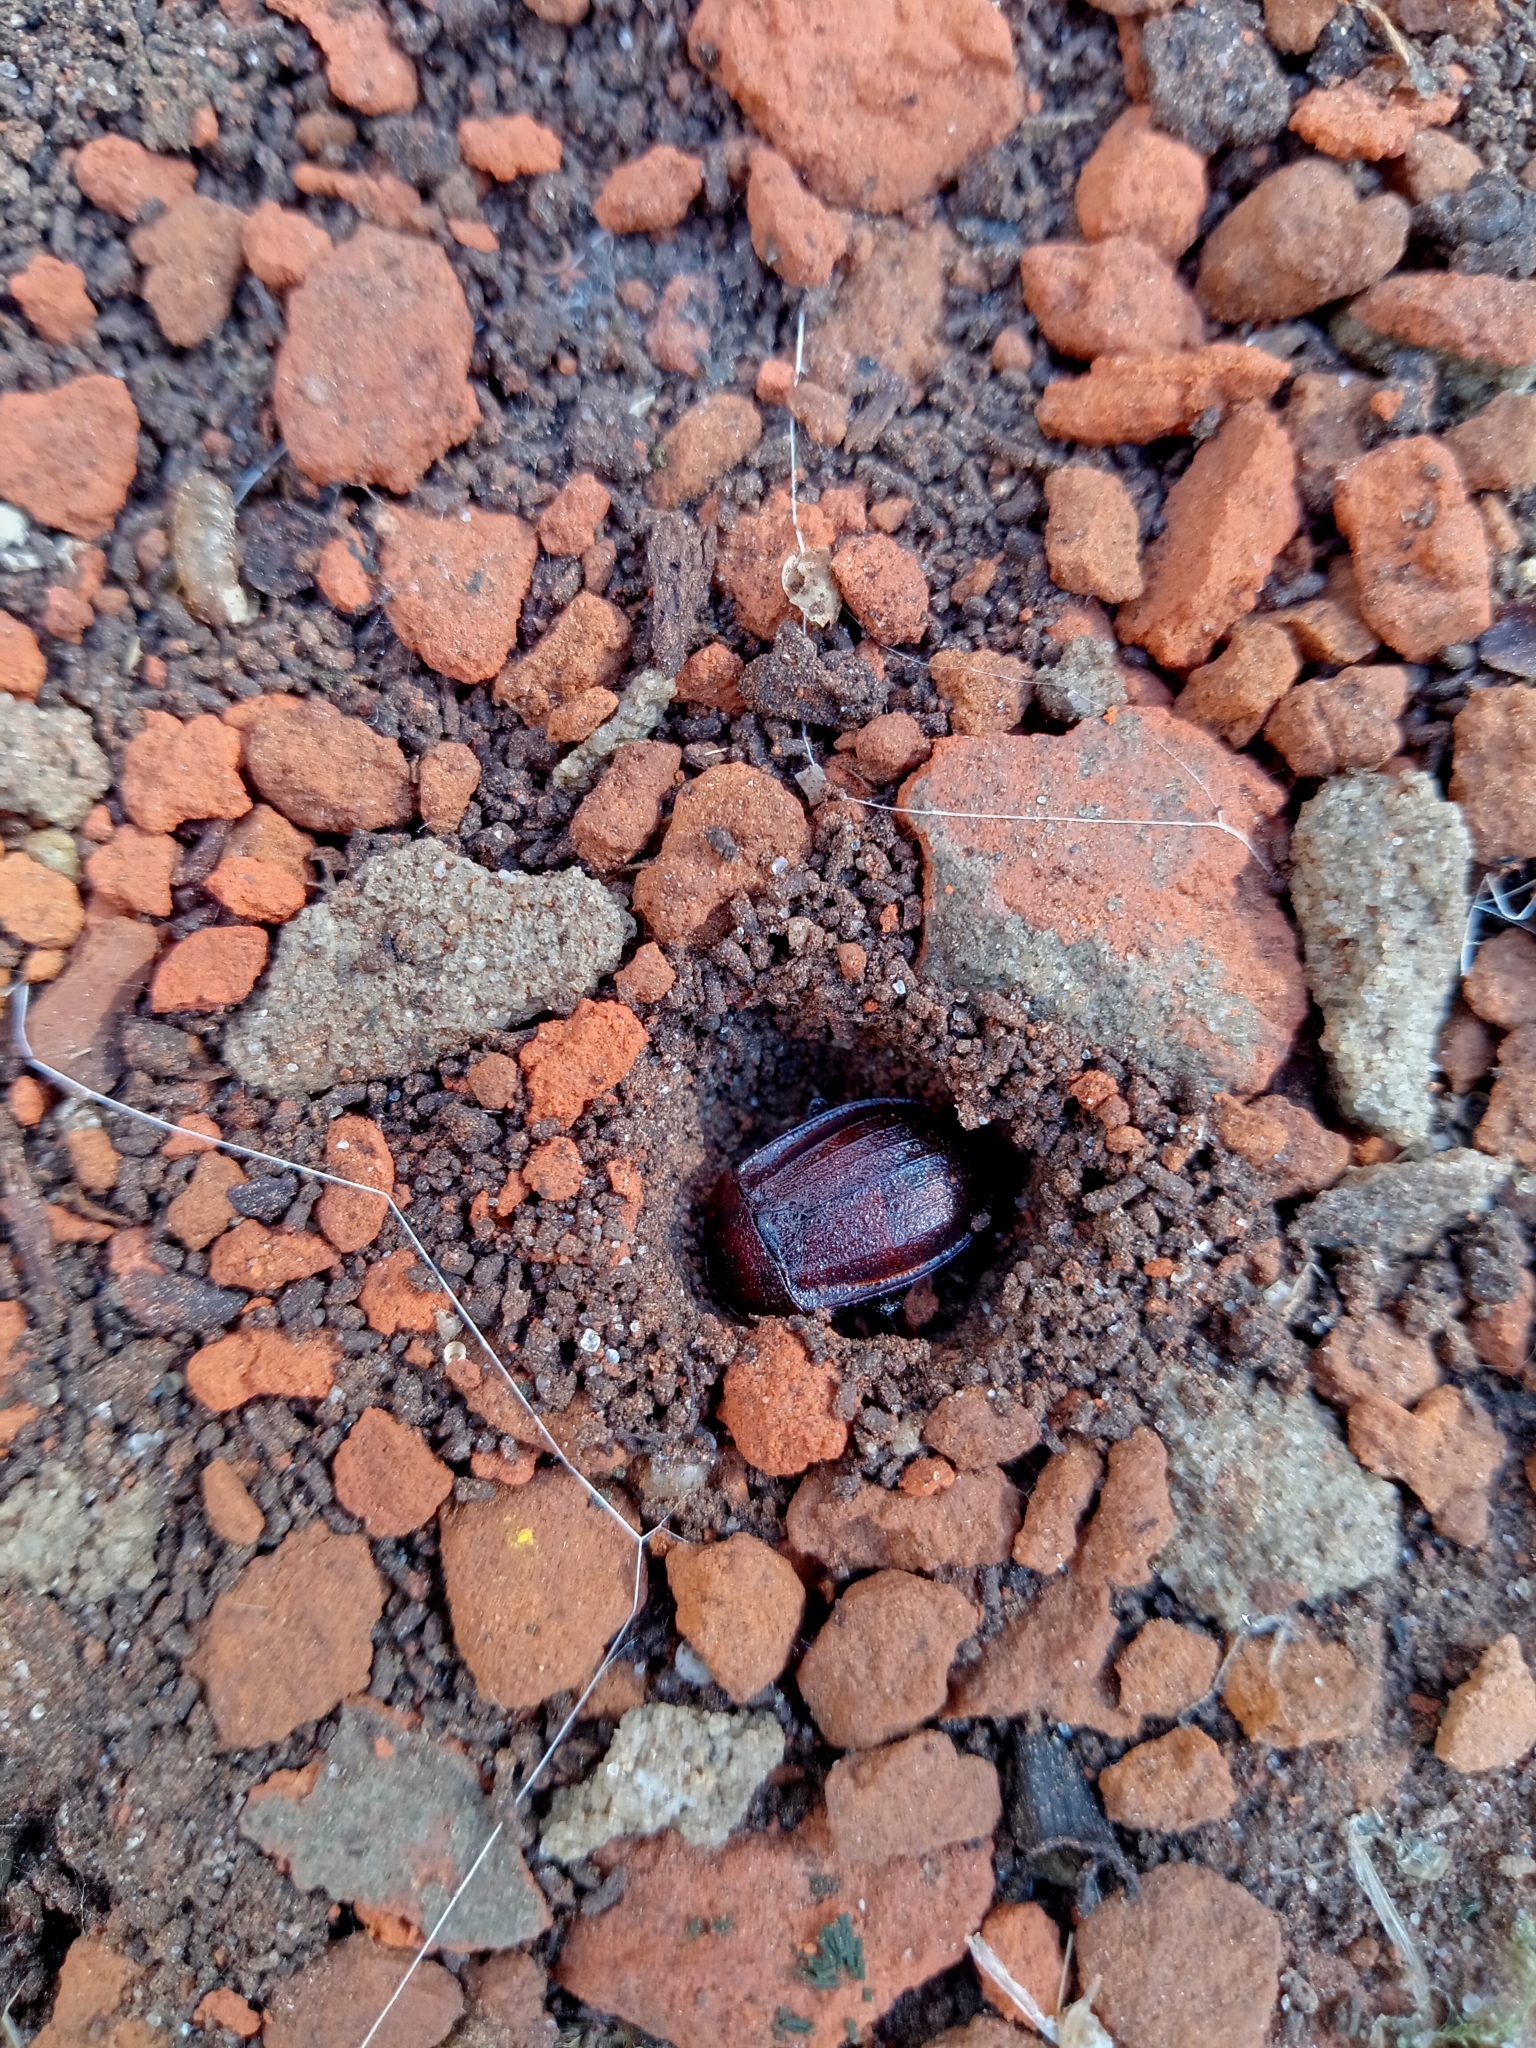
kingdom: Animalia
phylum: Arthropoda
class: Insecta
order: Coleoptera
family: Staphylinidae
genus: Silpha
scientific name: Silpha atrata
